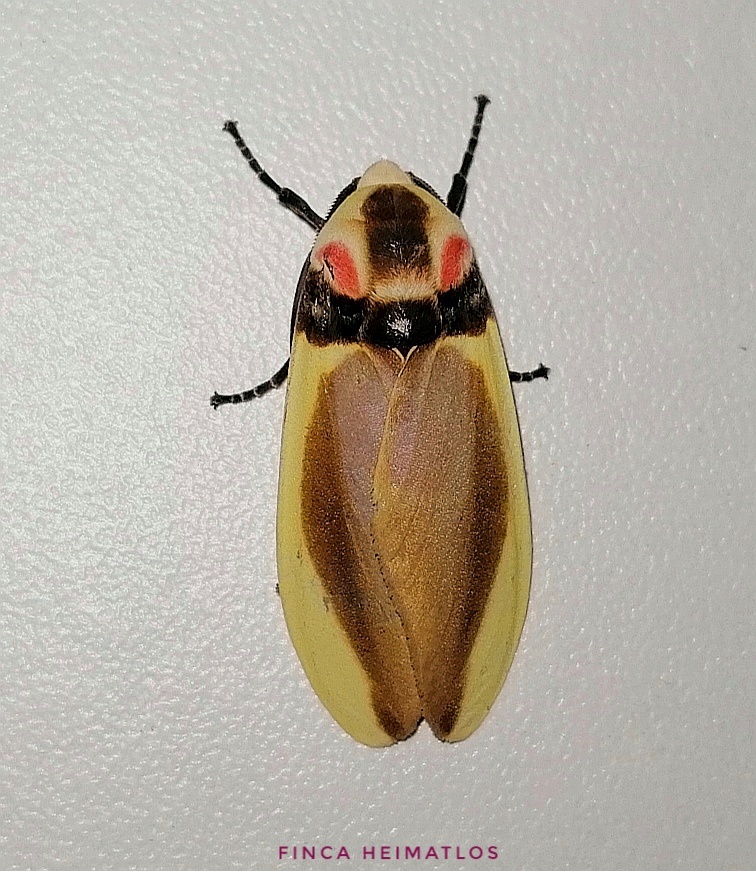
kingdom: Animalia
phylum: Arthropoda
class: Insecta
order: Lepidoptera
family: Erebidae
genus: Cratoplastis
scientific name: Cratoplastis diluta
